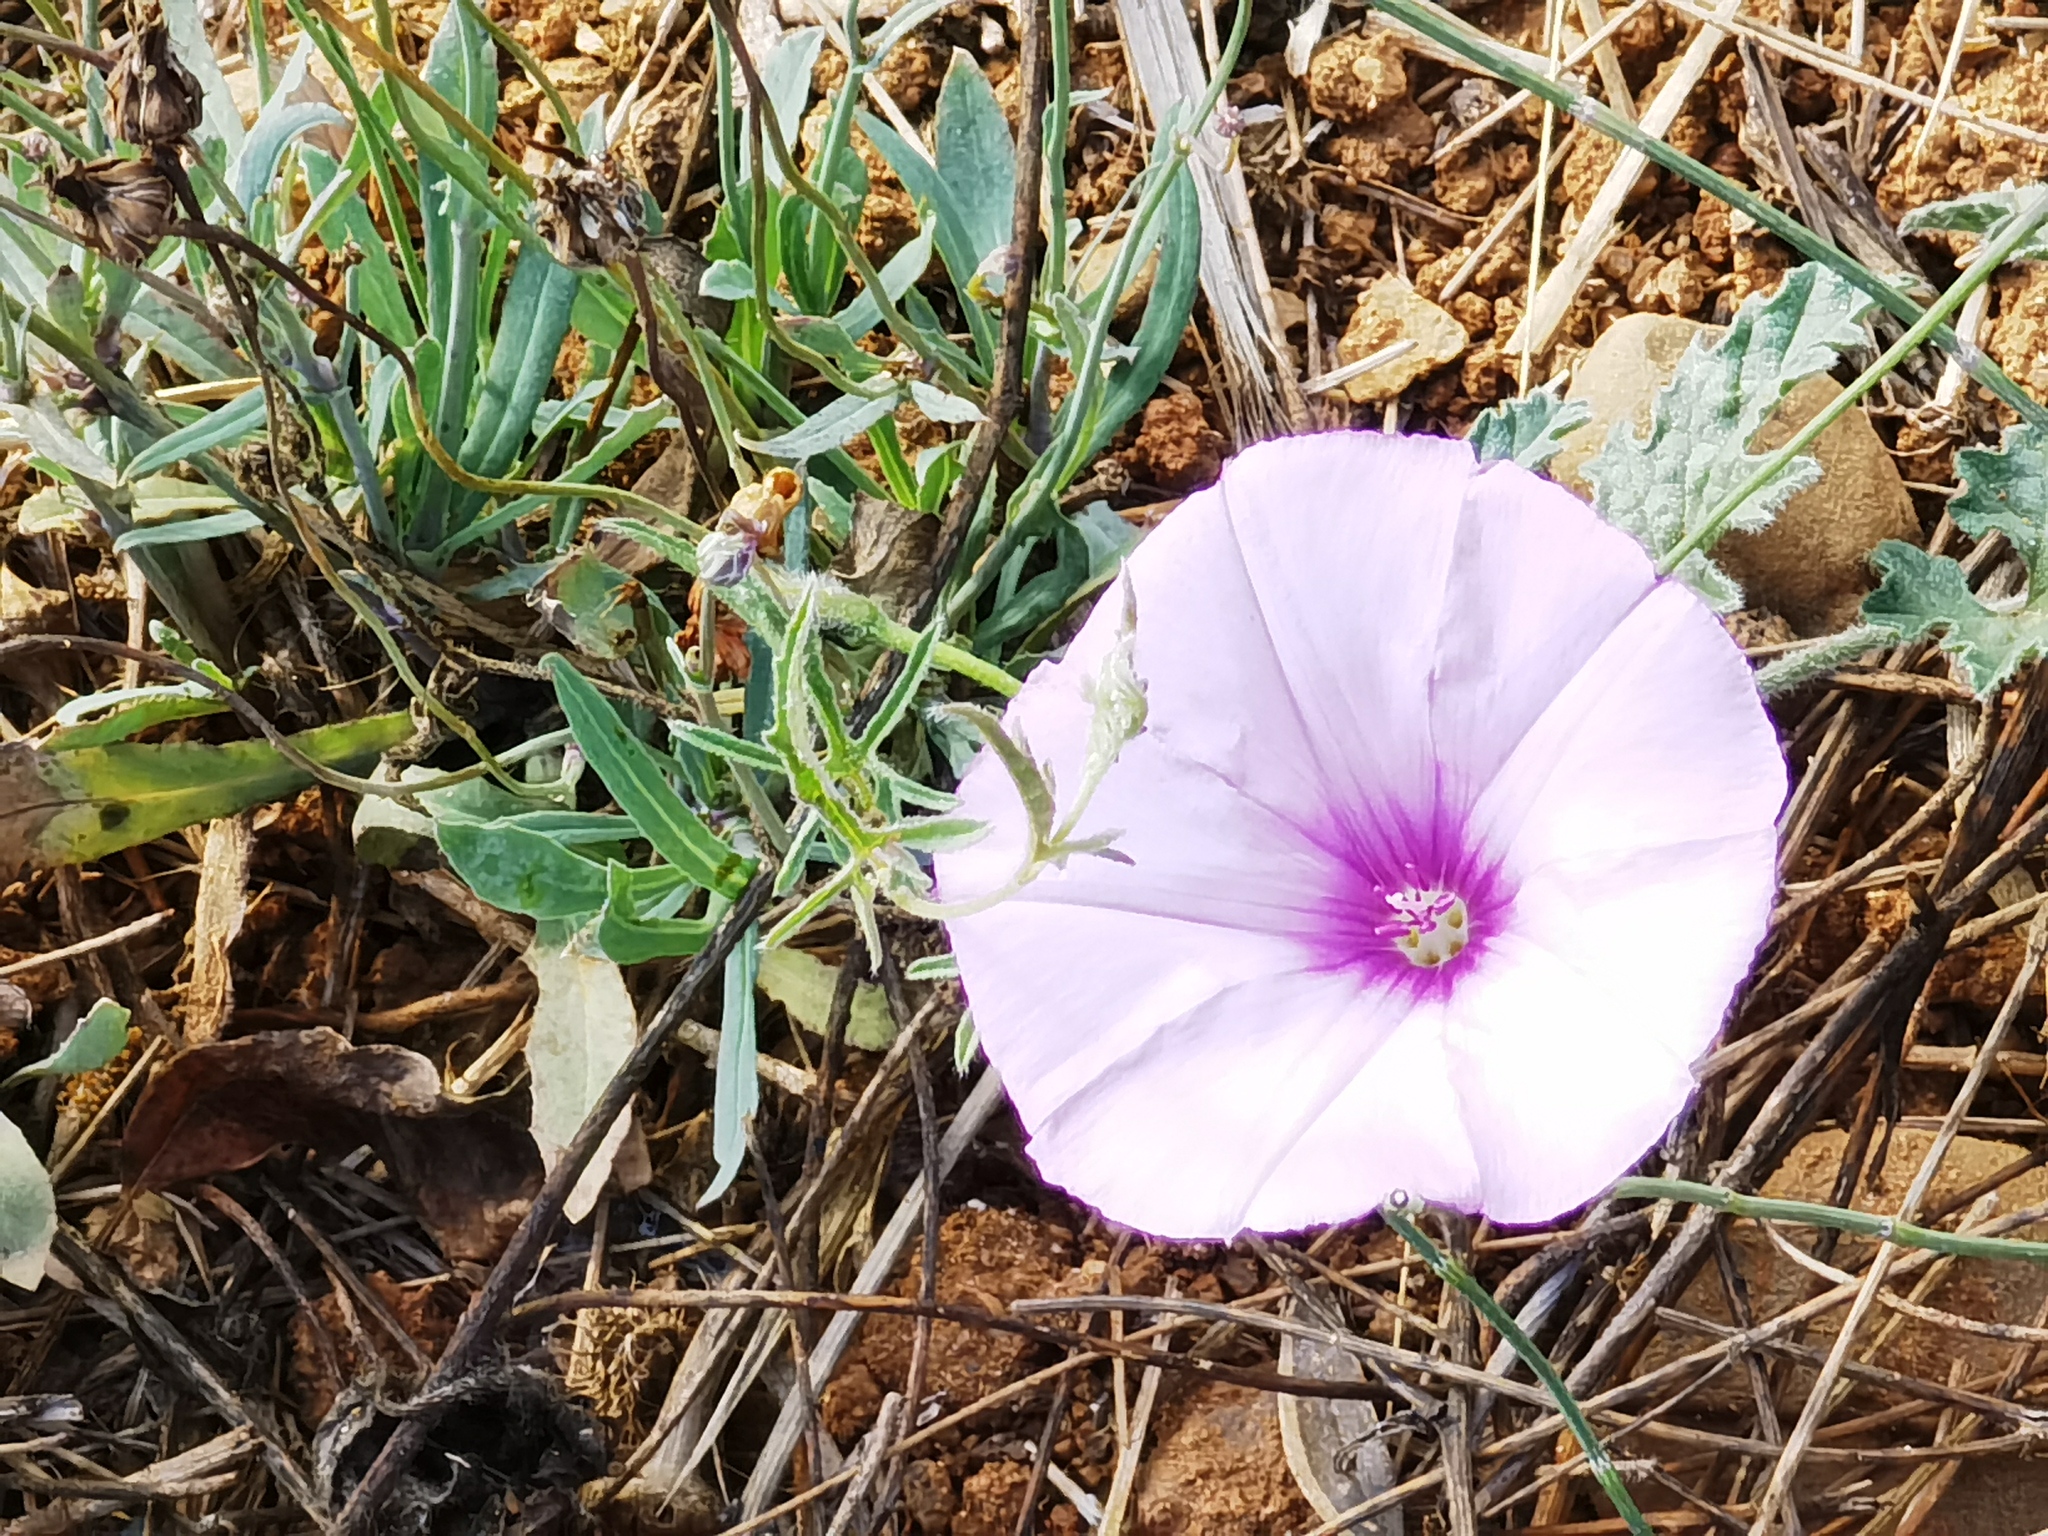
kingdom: Plantae
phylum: Tracheophyta
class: Magnoliopsida
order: Solanales
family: Convolvulaceae
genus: Convolvulus
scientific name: Convolvulus althaeoides
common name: Mallow bindweed
